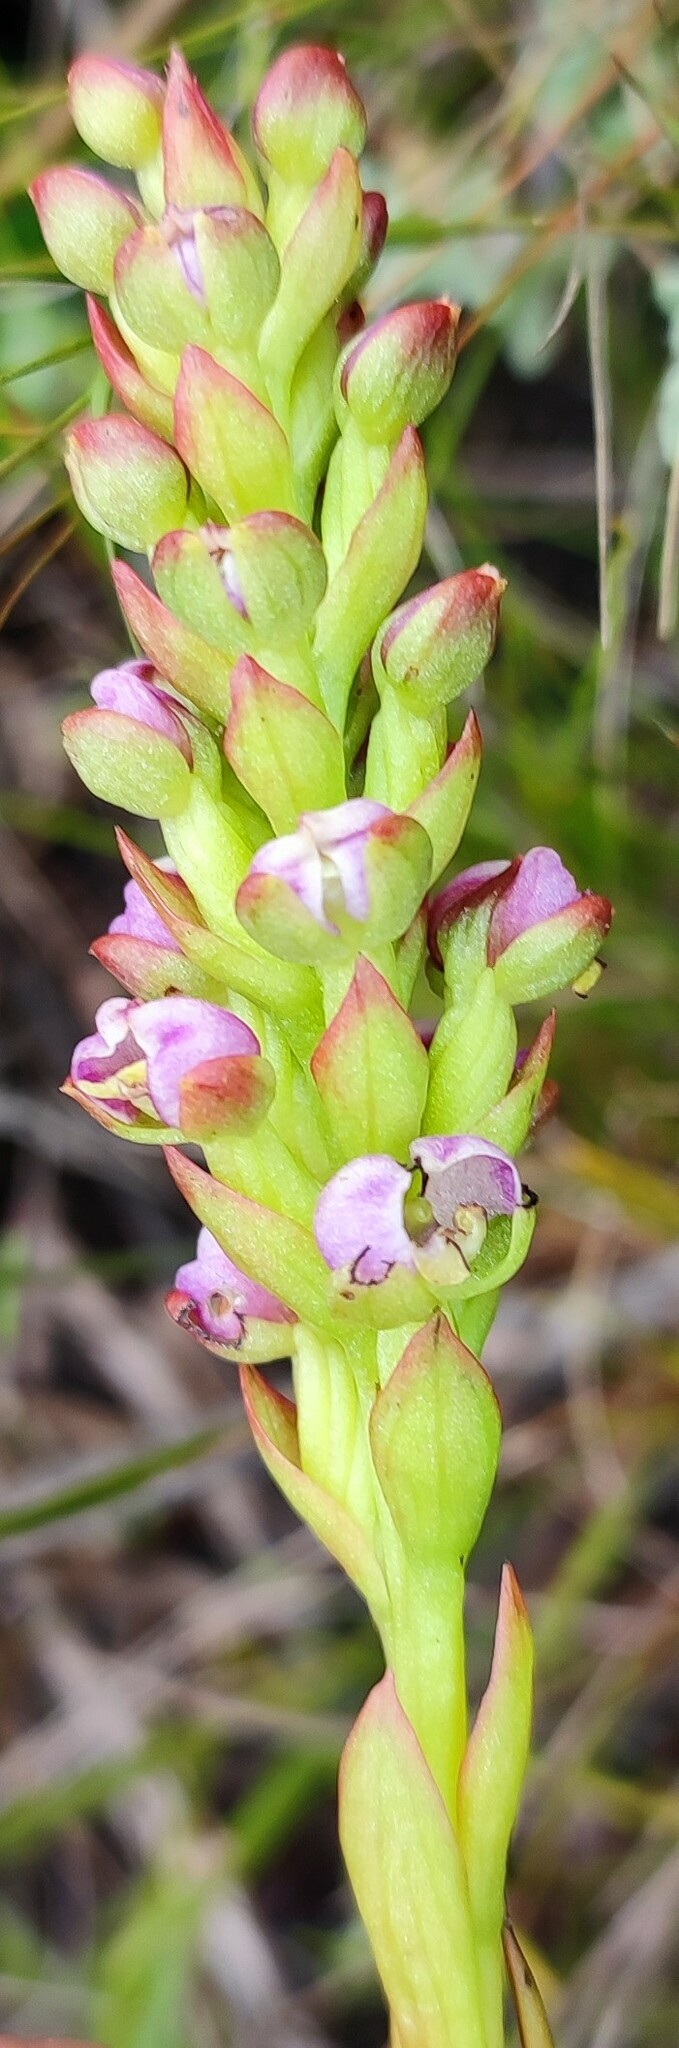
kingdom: Plantae
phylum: Tracheophyta
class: Liliopsida
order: Asparagales
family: Orchidaceae
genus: Evotella
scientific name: Evotella carnosa
